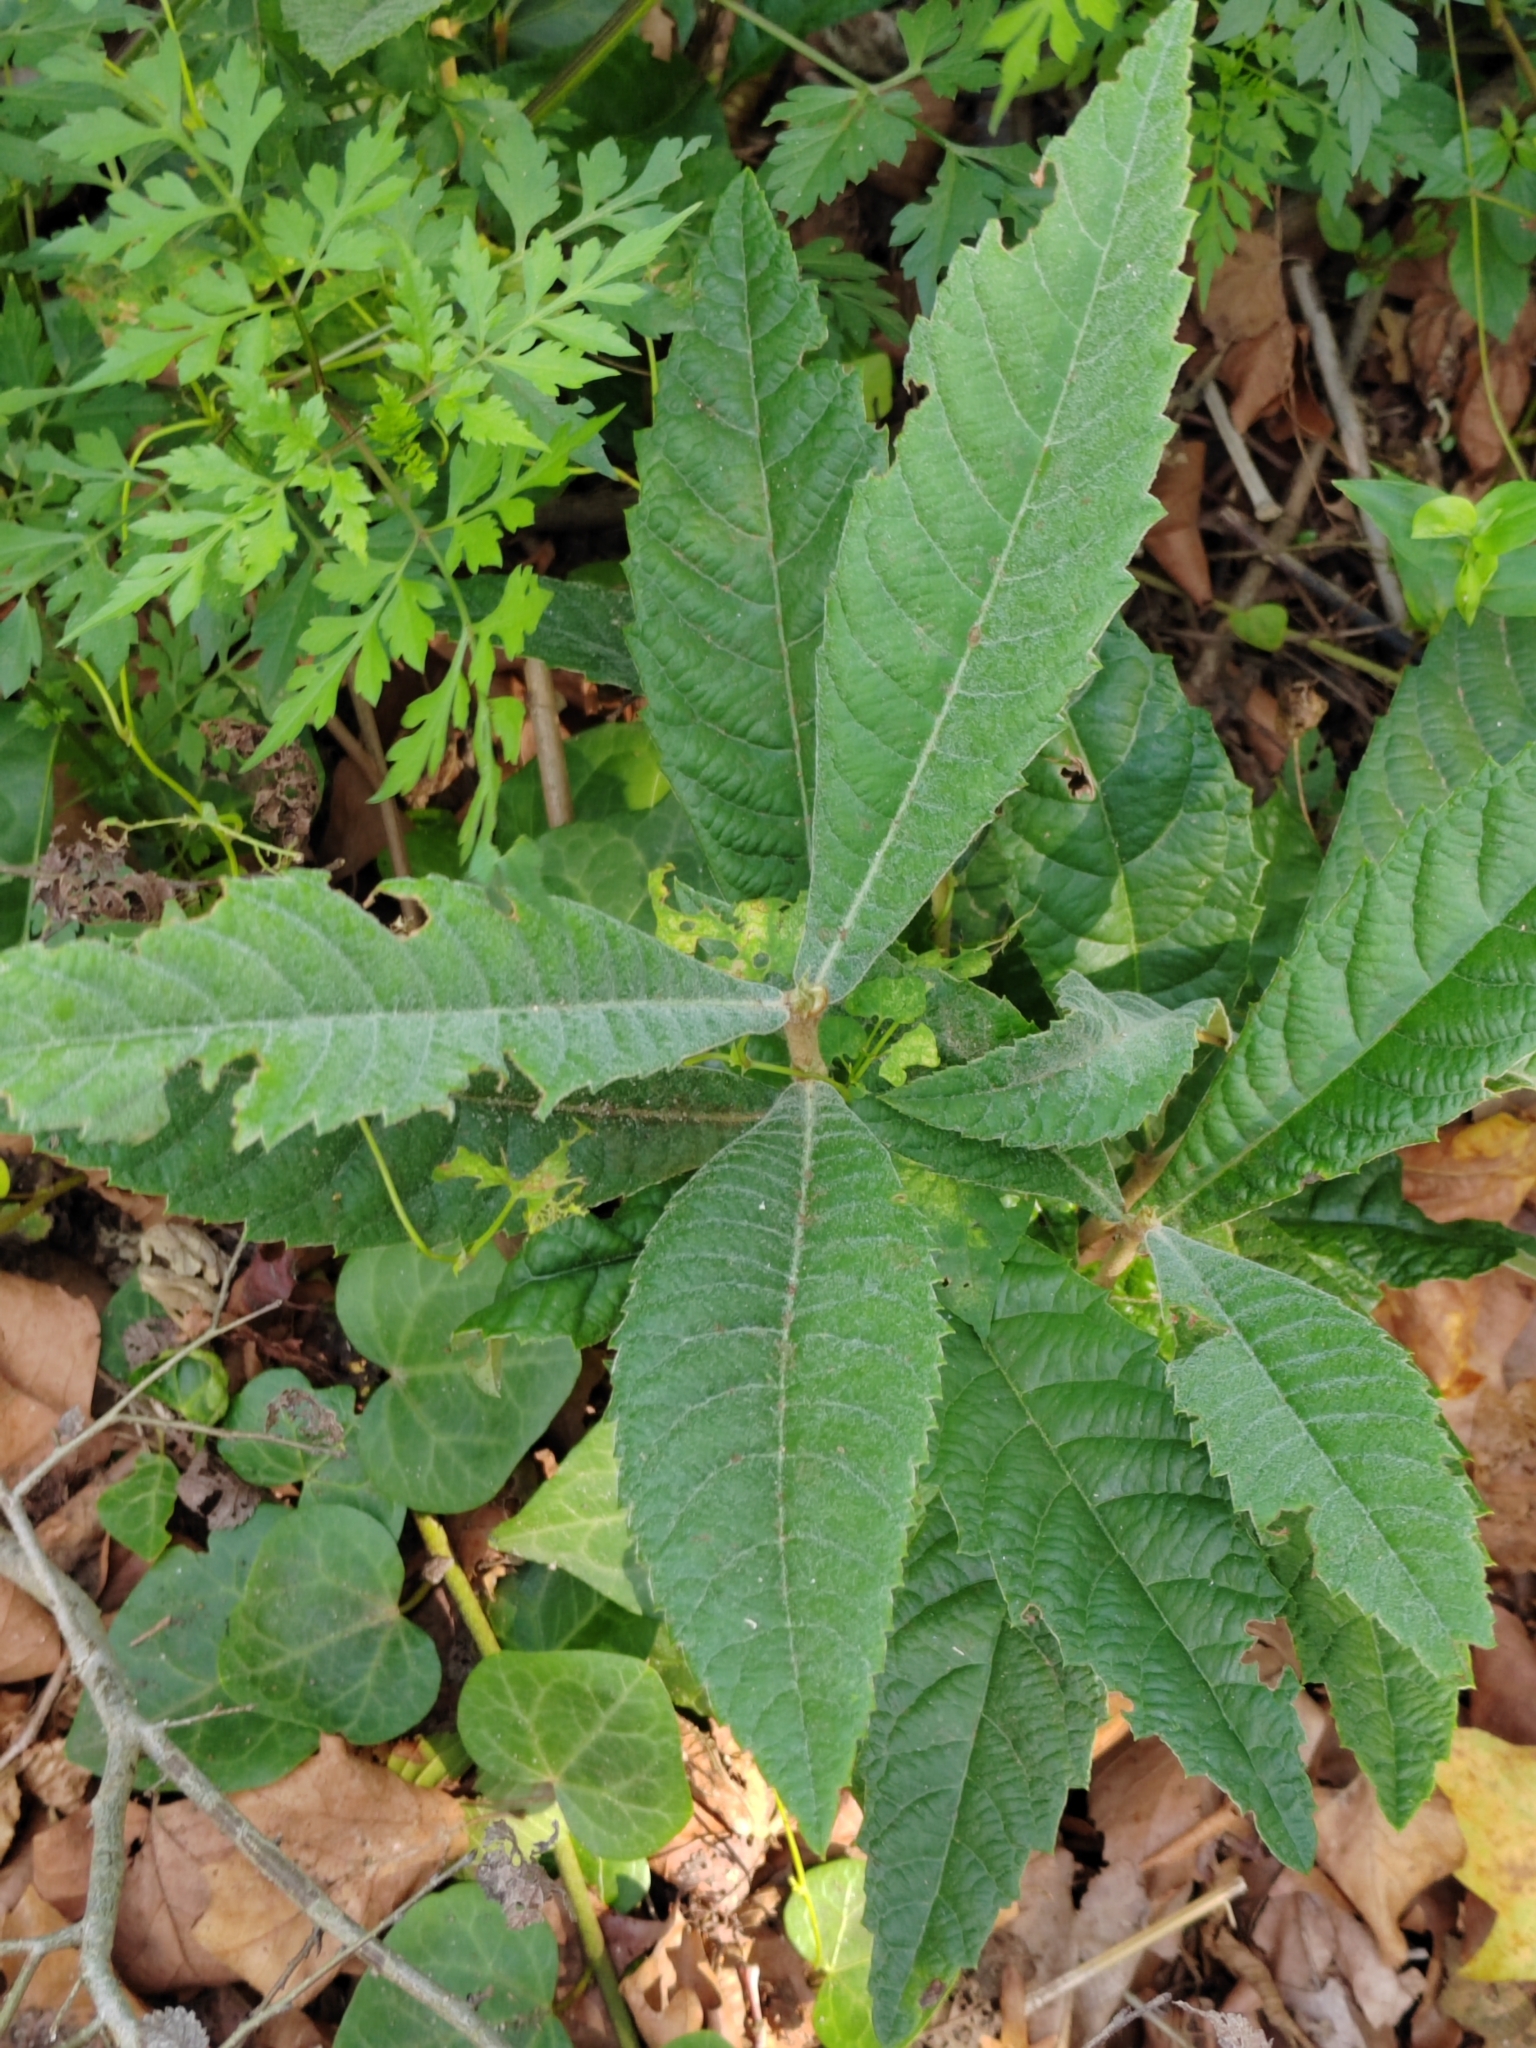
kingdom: Plantae
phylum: Tracheophyta
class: Magnoliopsida
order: Rosales
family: Rosaceae
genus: Rhaphiolepis
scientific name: Rhaphiolepis bibas
